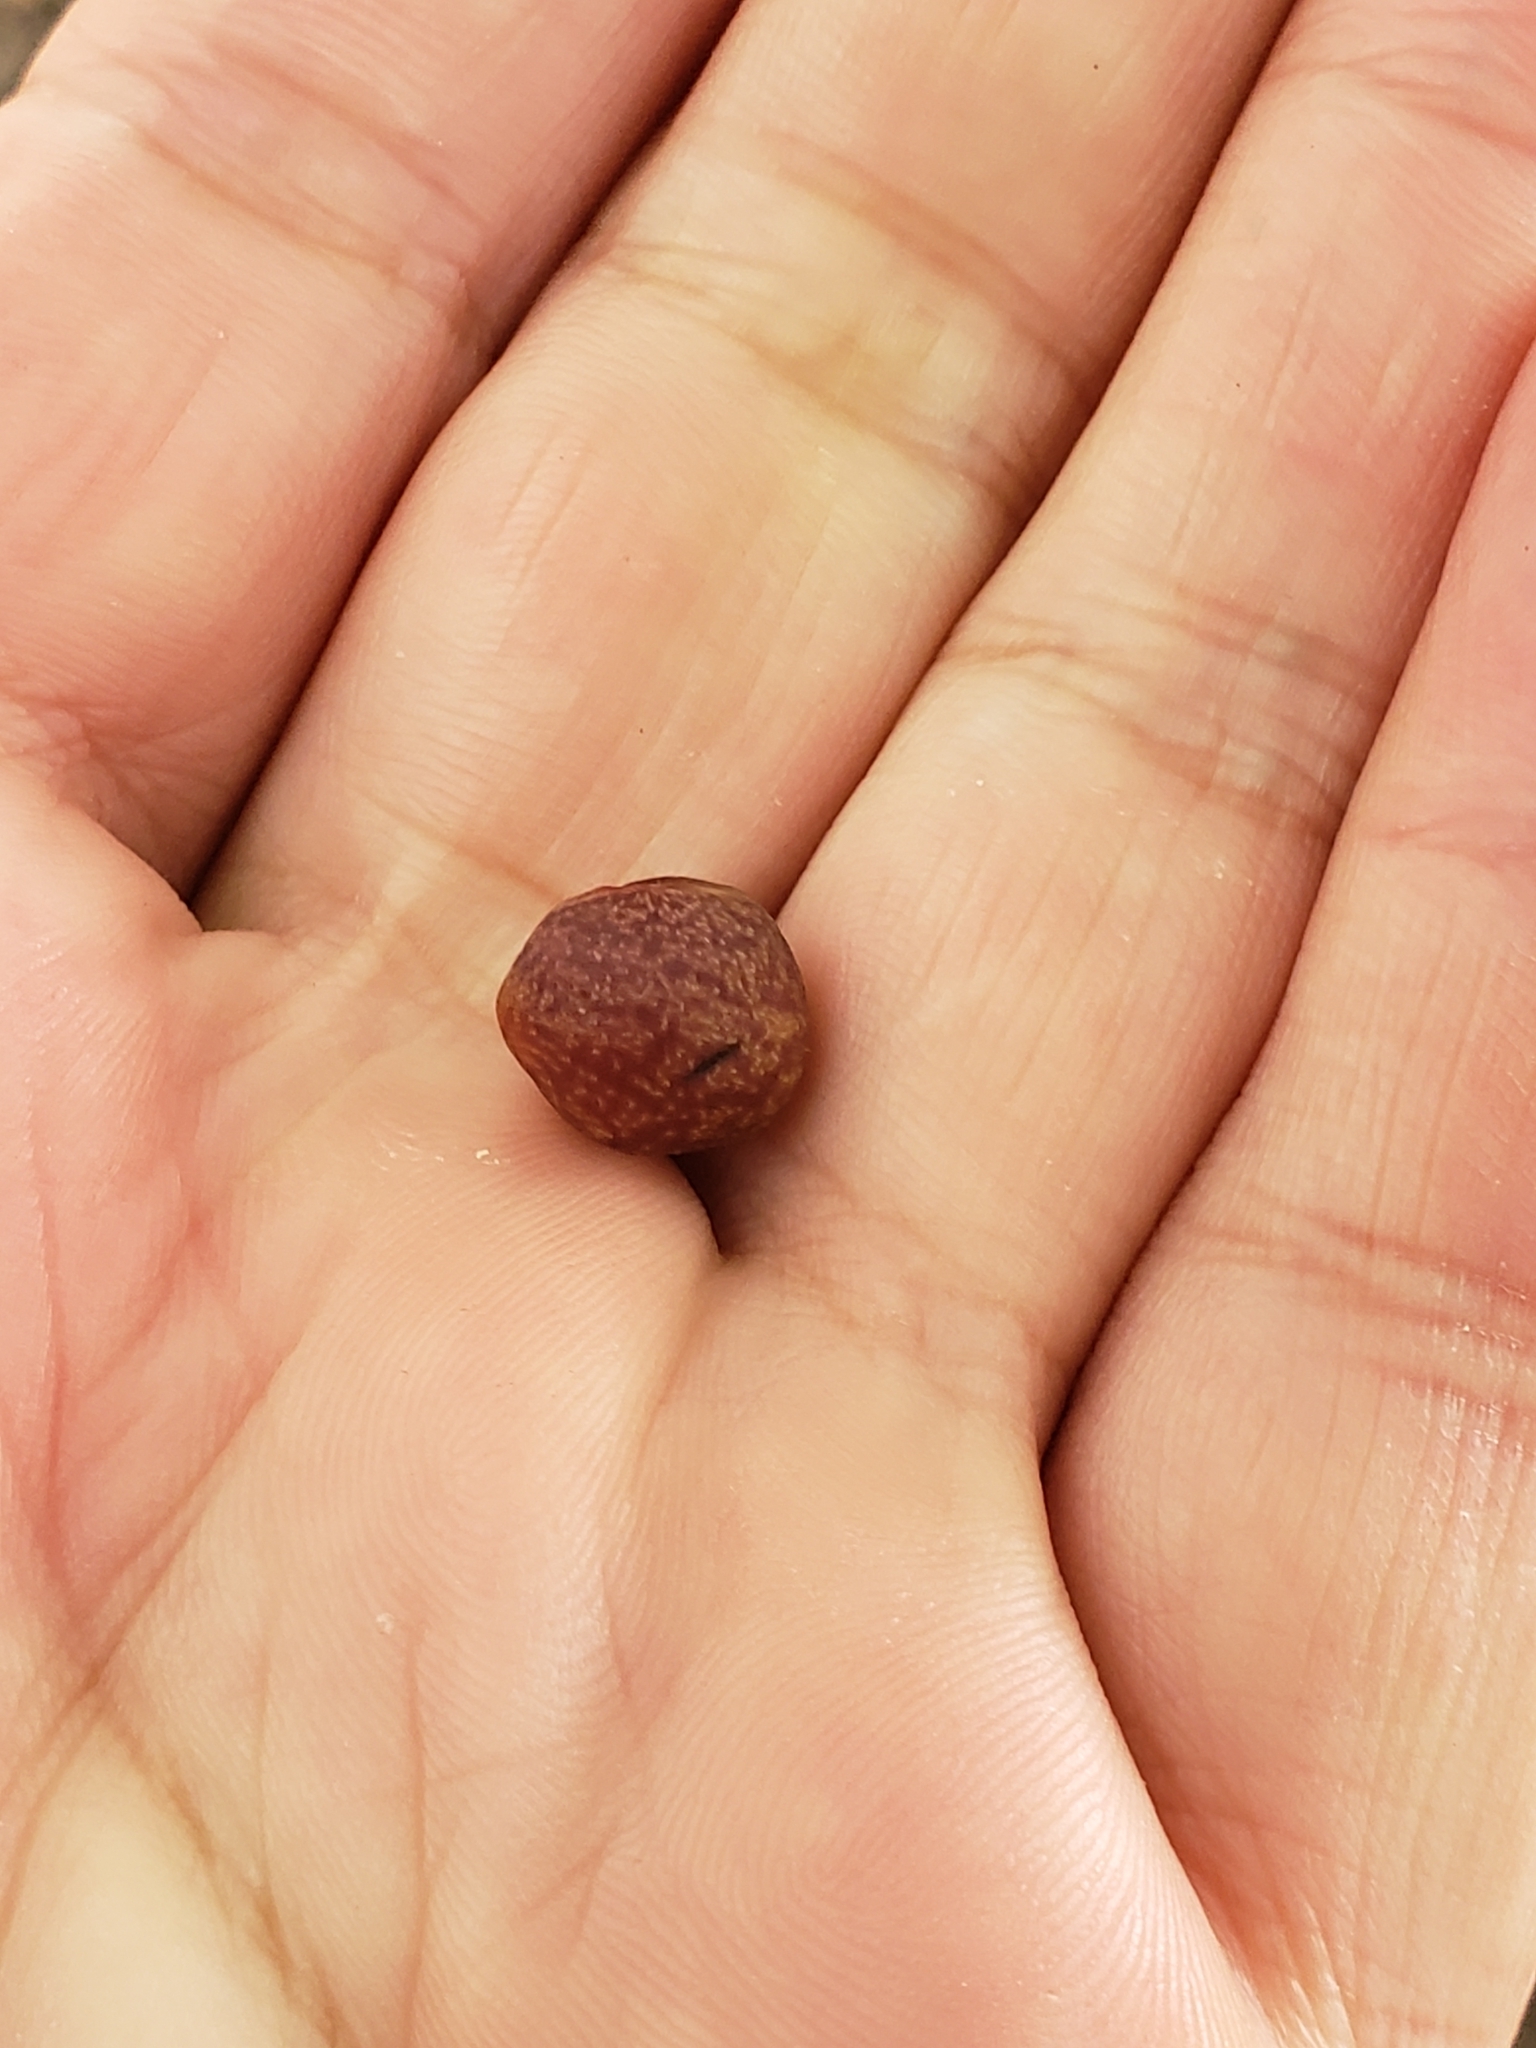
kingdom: Animalia
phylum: Arthropoda
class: Insecta
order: Hymenoptera
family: Cynipidae
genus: Kokkocynips
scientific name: Kokkocynips imbricariae
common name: Banded bullet gall wasp
